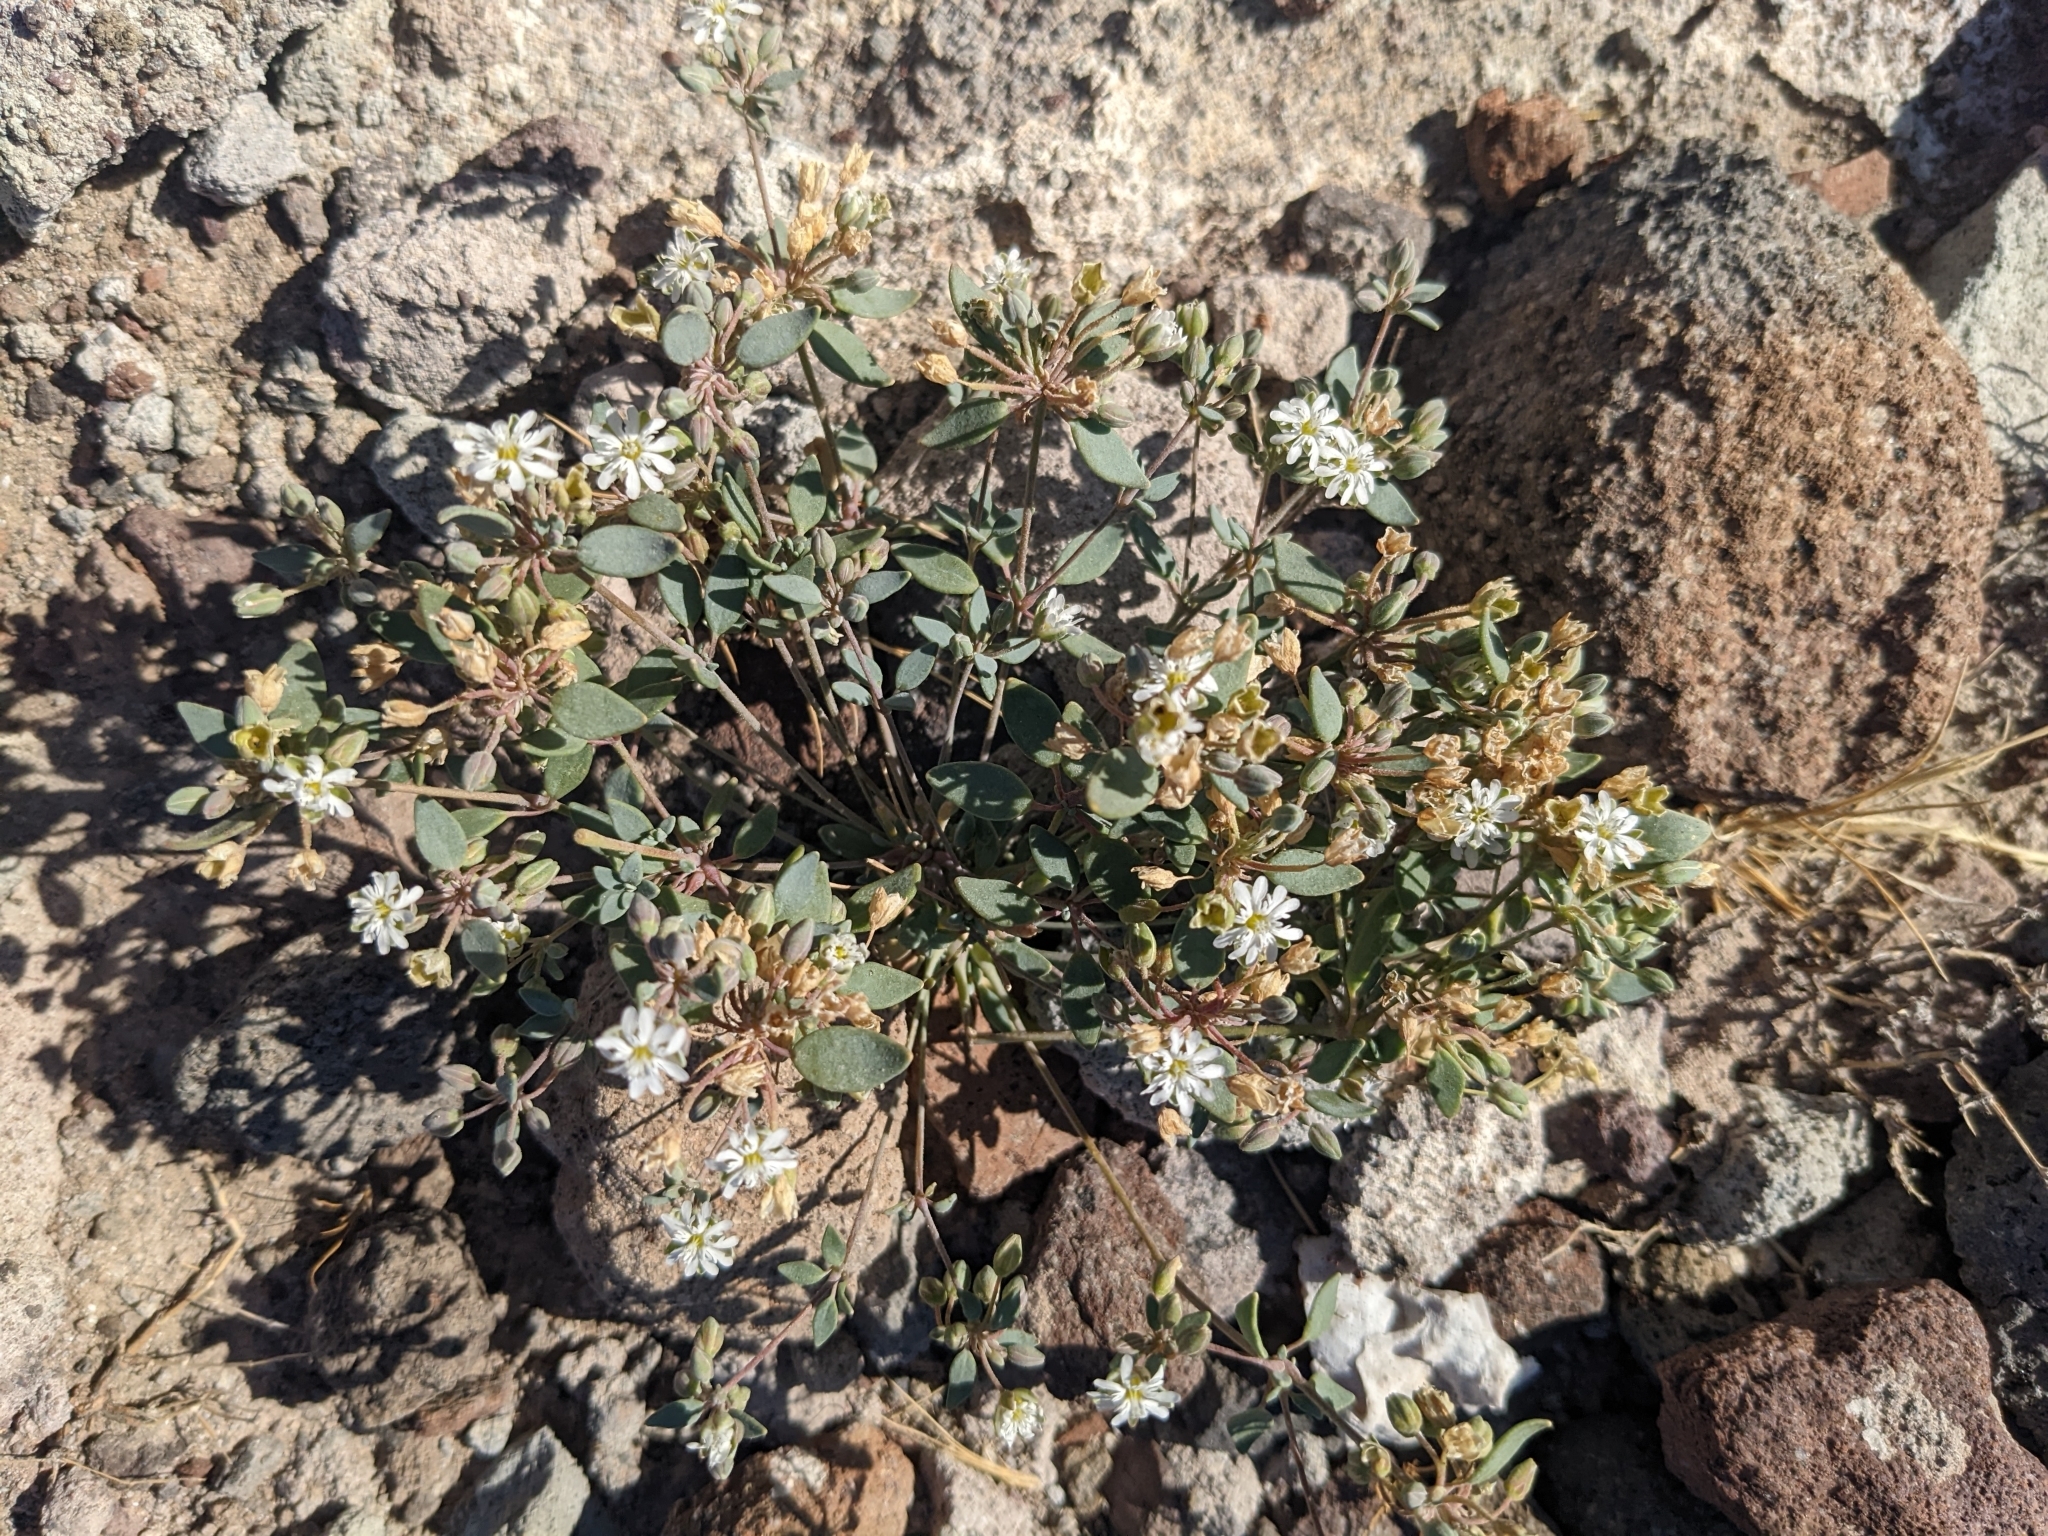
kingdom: Plantae
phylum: Tracheophyta
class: Magnoliopsida
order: Caryophyllales
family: Caryophyllaceae
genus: Drymaria
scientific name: Drymaria holosteoides
